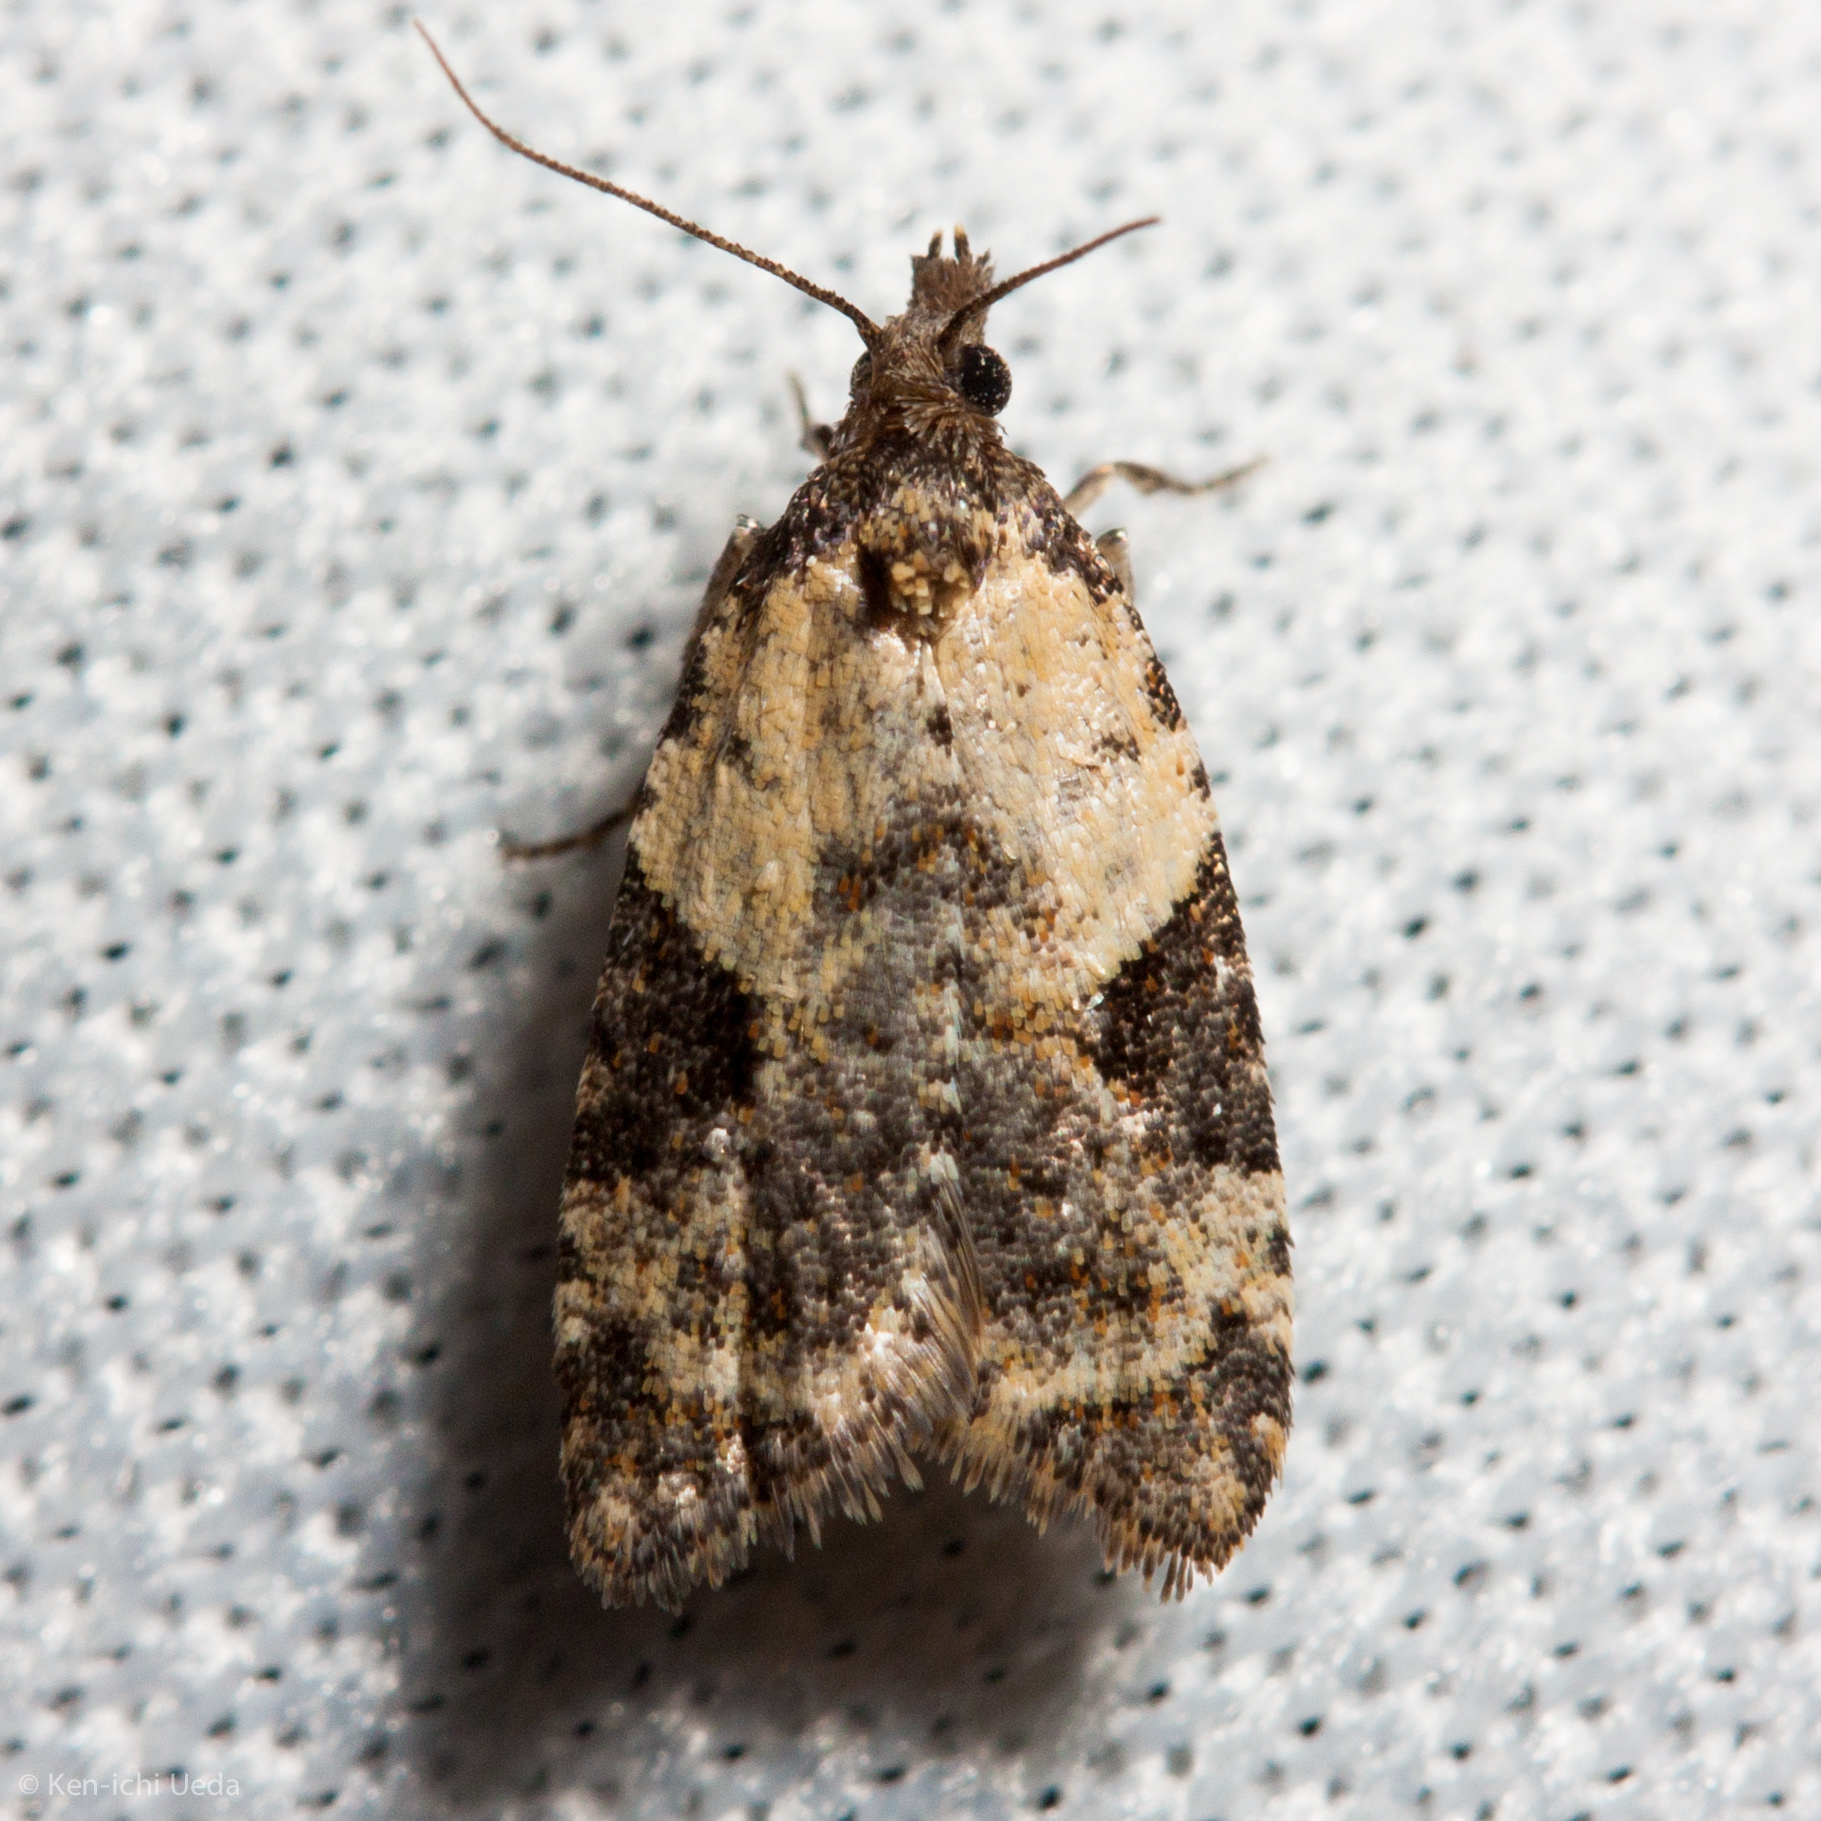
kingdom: Animalia
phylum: Arthropoda
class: Insecta
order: Lepidoptera
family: Tortricidae
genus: Anopina
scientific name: Anopina triangulana
